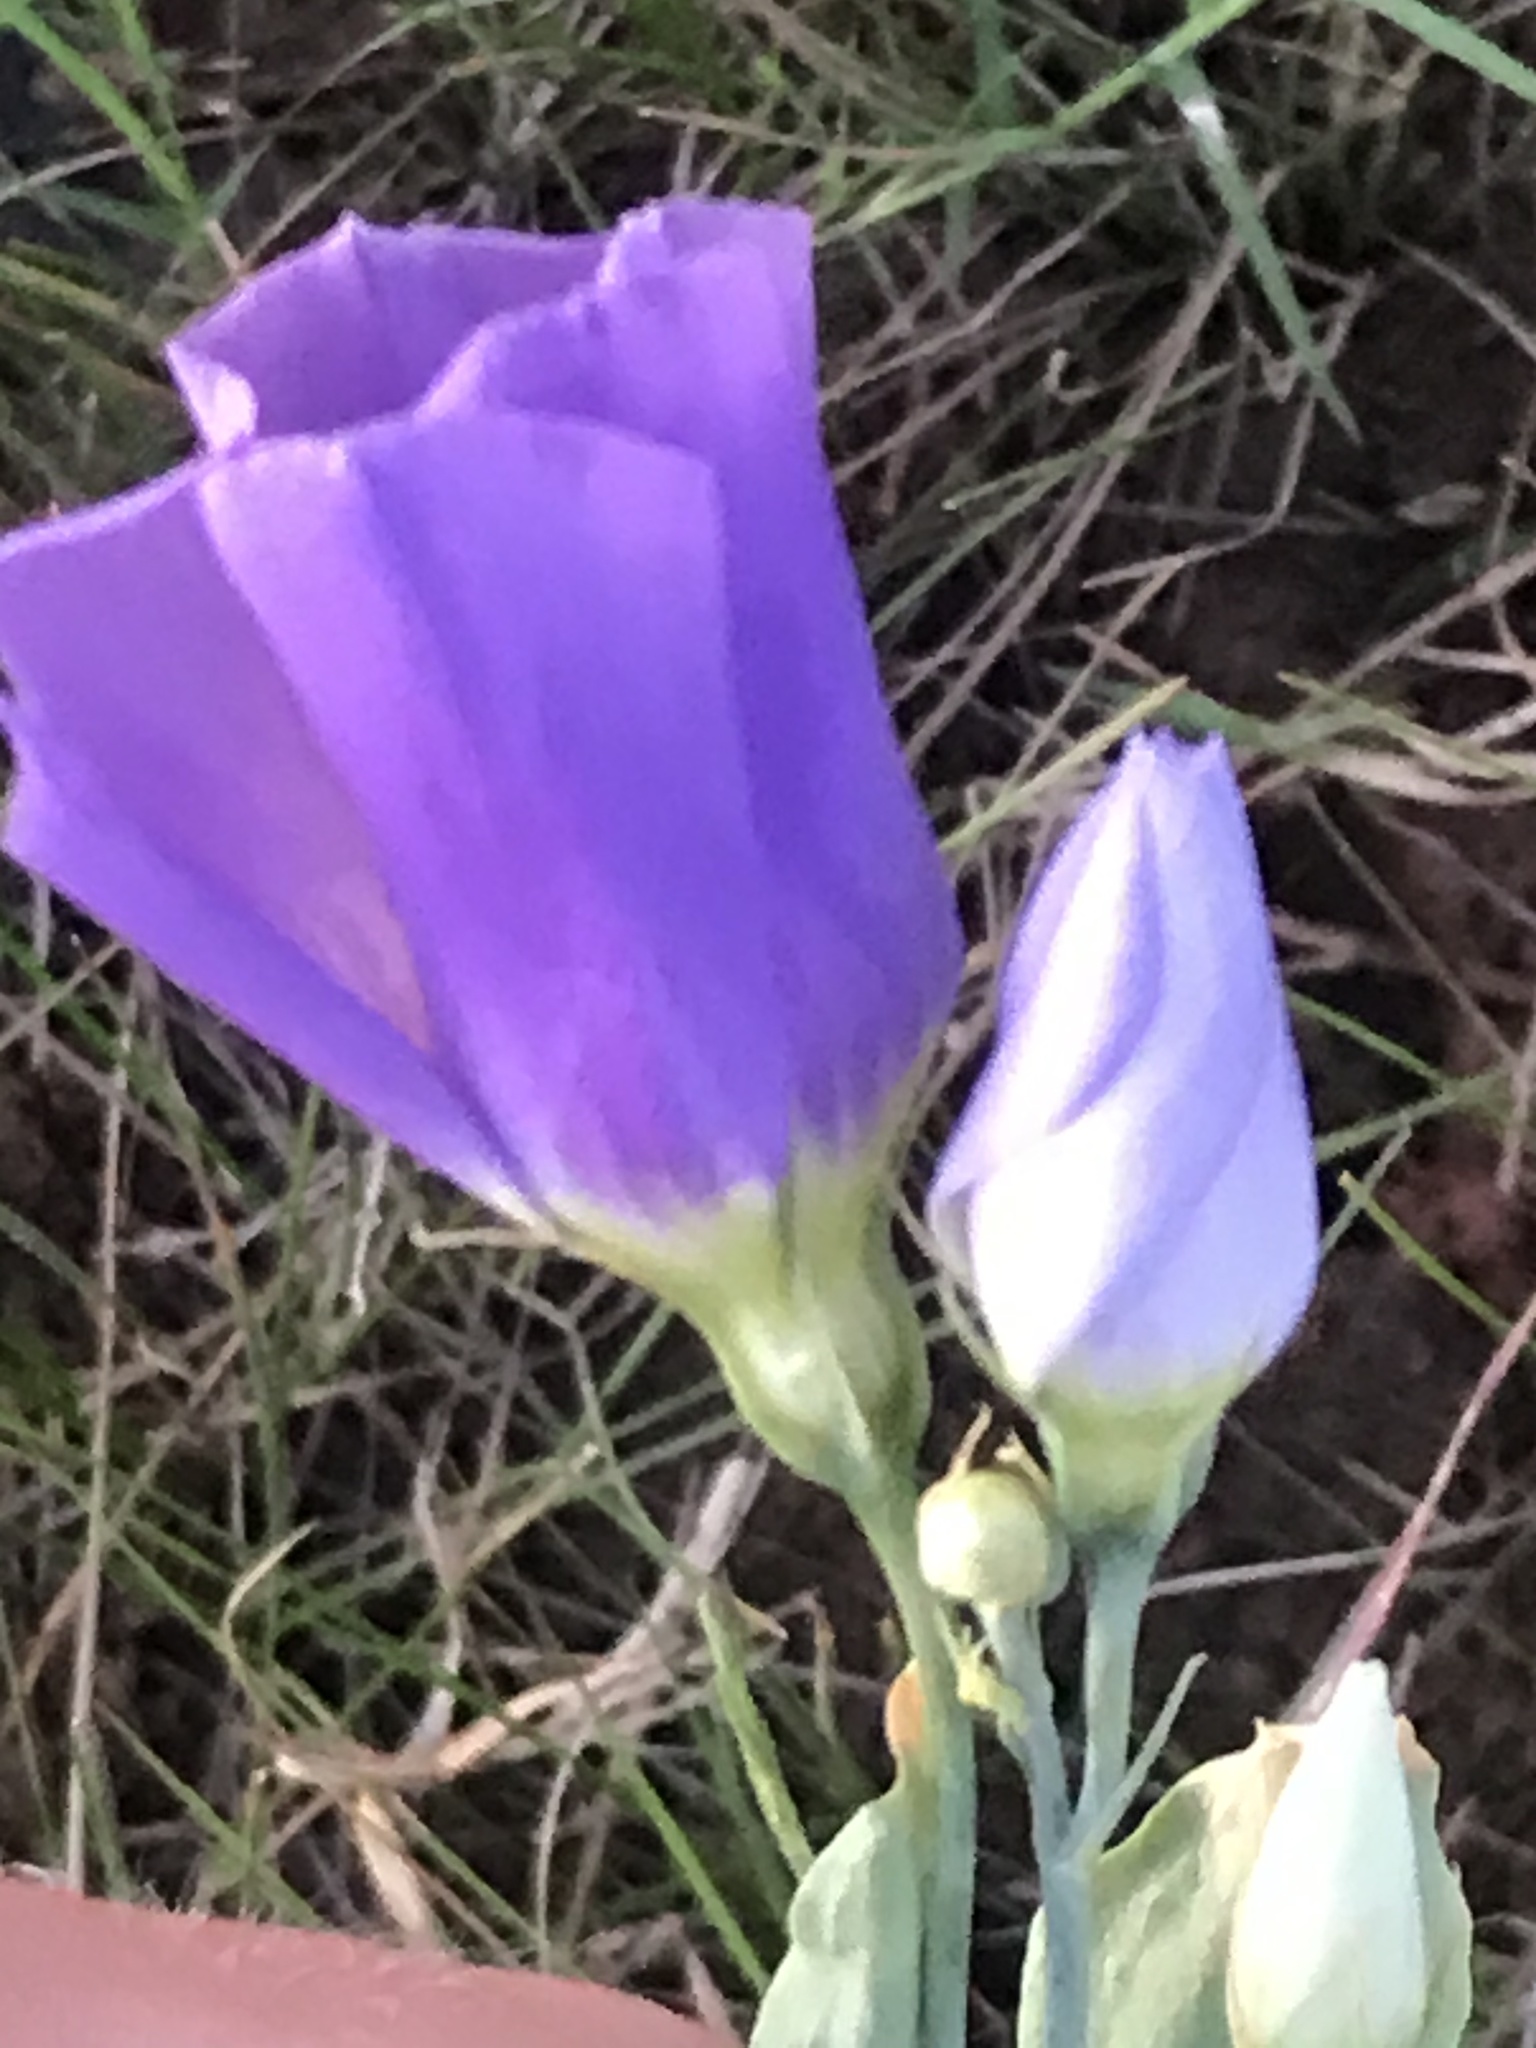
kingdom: Plantae
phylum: Tracheophyta
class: Magnoliopsida
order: Gentianales
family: Gentianaceae
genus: Eustoma
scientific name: Eustoma exaltatum
